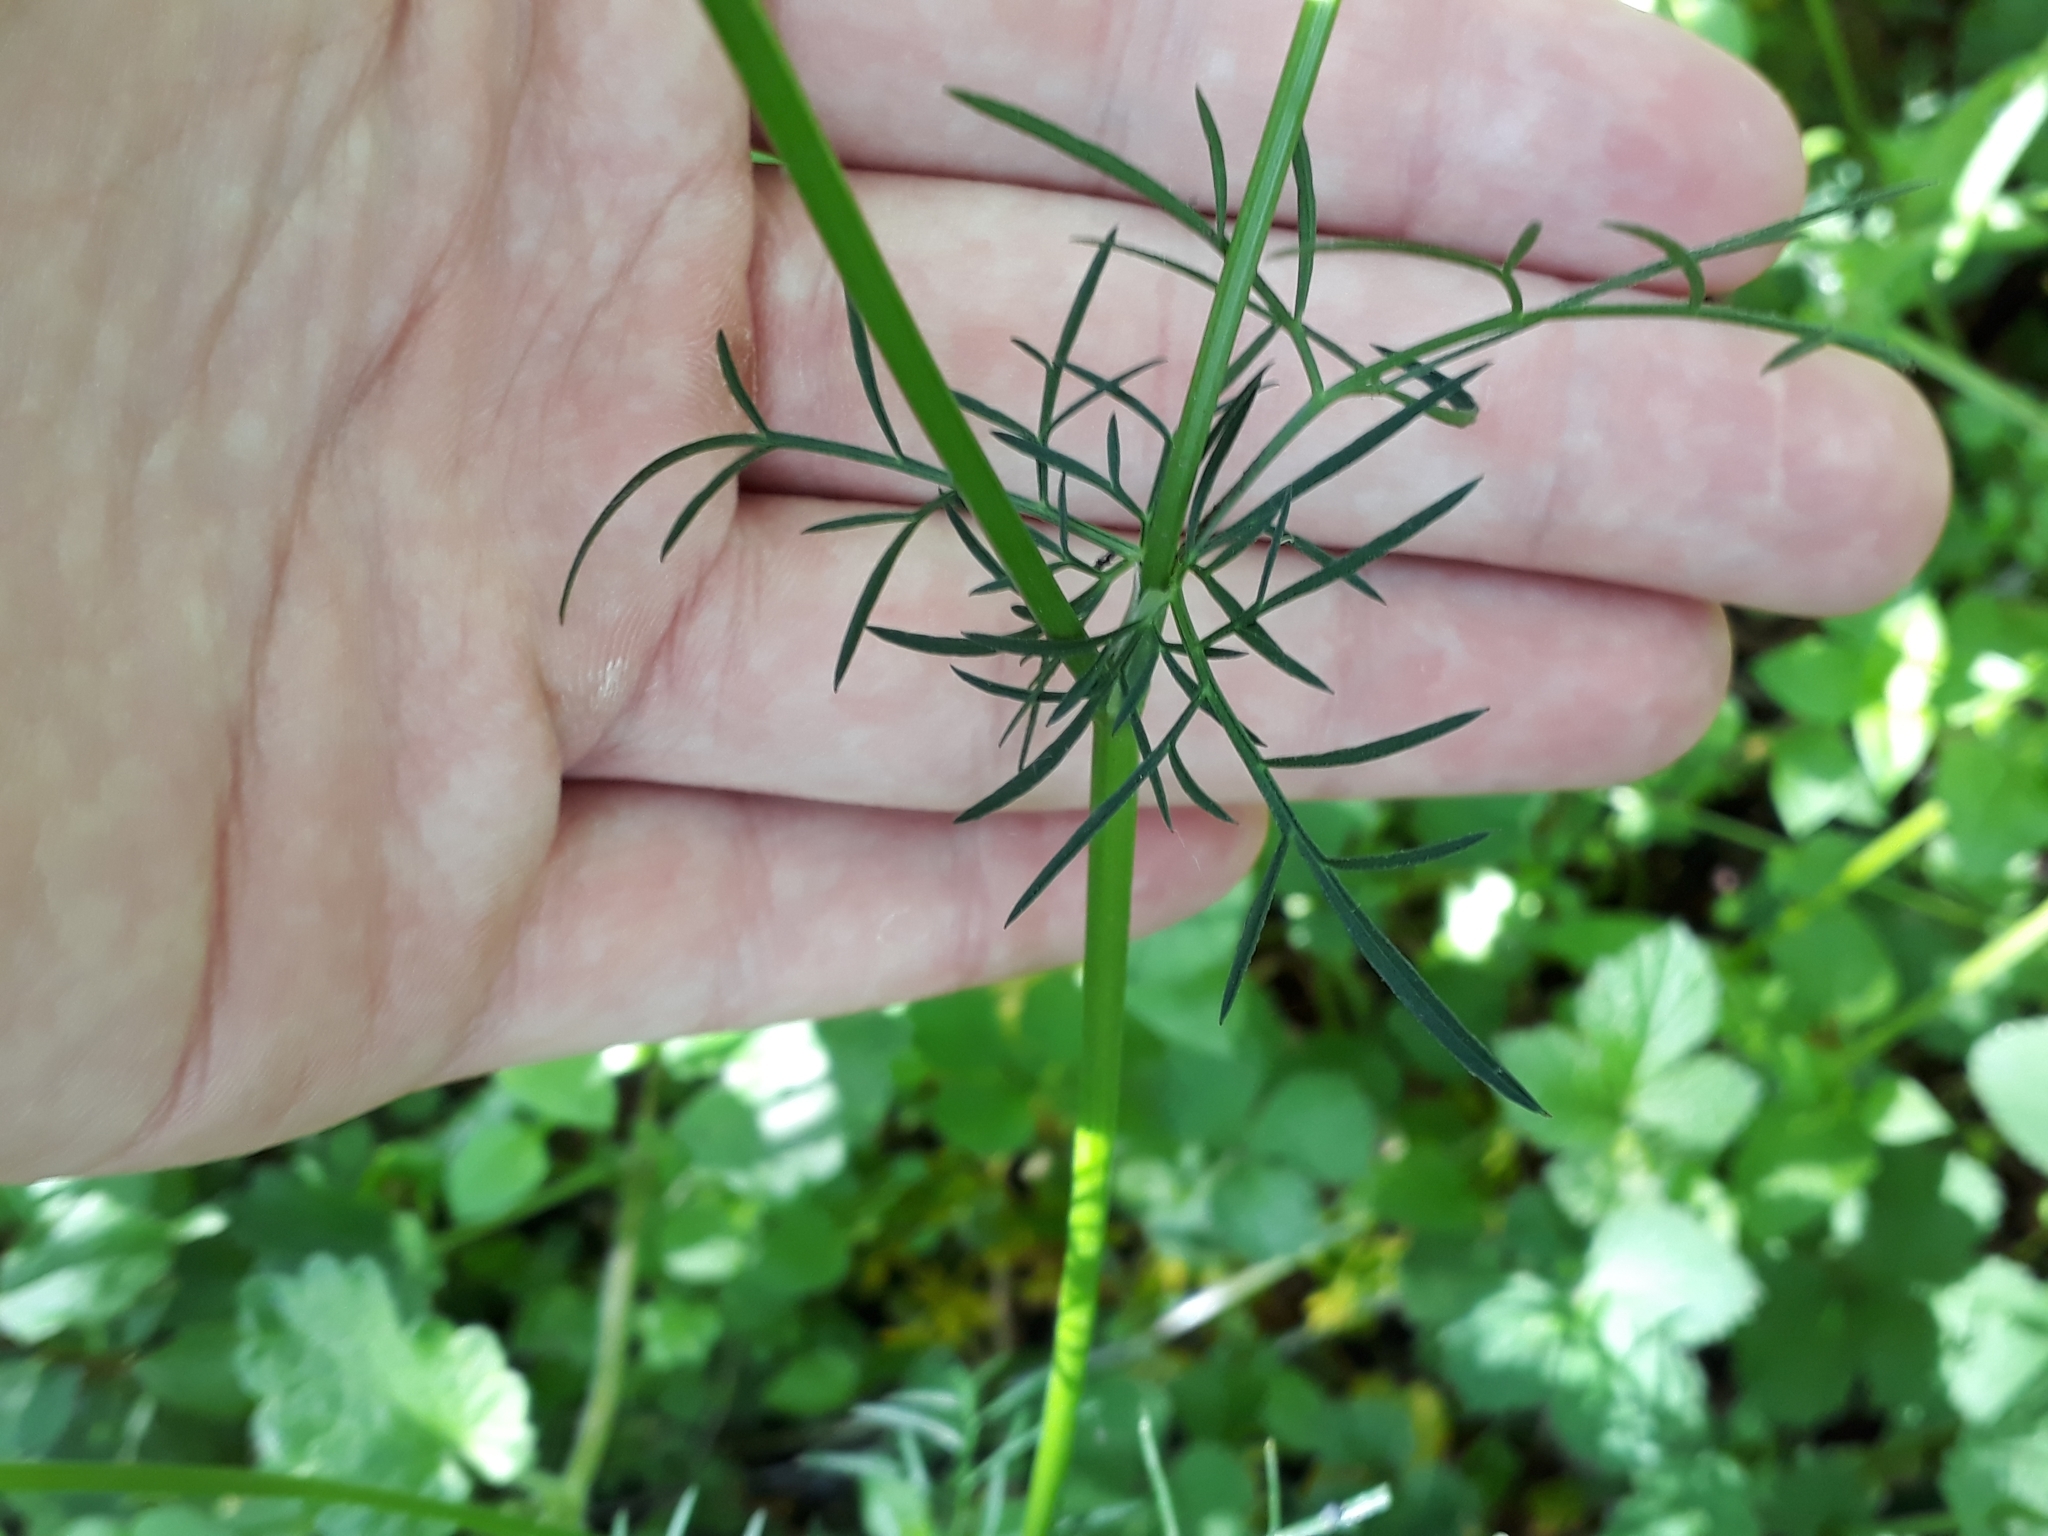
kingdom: Plantae
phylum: Tracheophyta
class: Magnoliopsida
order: Apiales
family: Apiaceae
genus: Conopodium
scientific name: Conopodium majus
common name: Pignut
